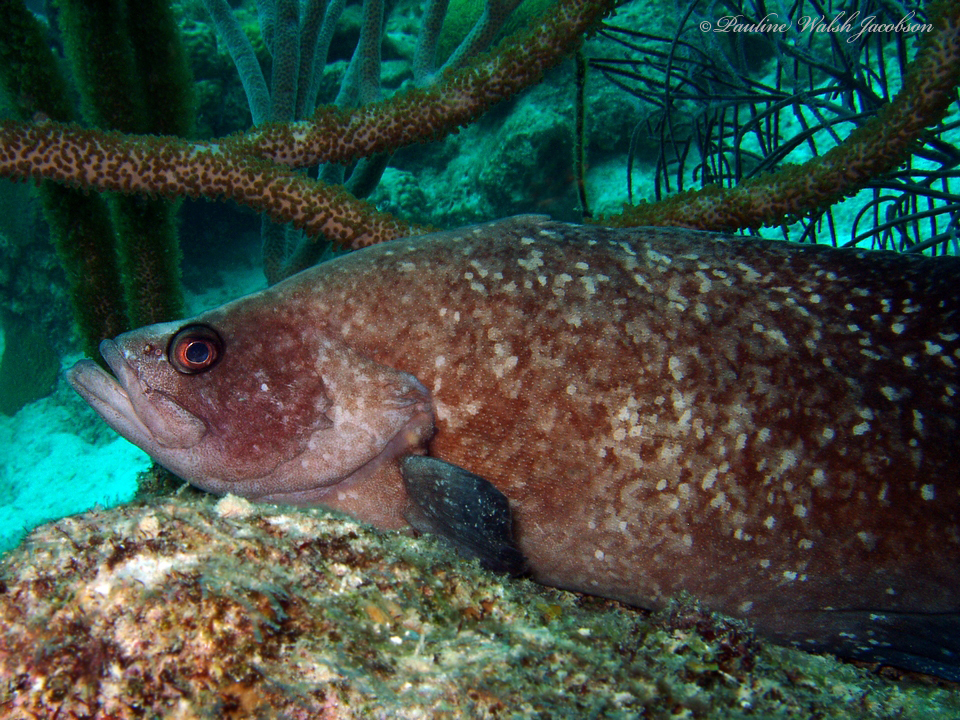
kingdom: Animalia
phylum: Chordata
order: Perciformes
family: Serranidae
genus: Rypticus
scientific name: Rypticus saponaceus
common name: Soapfish
